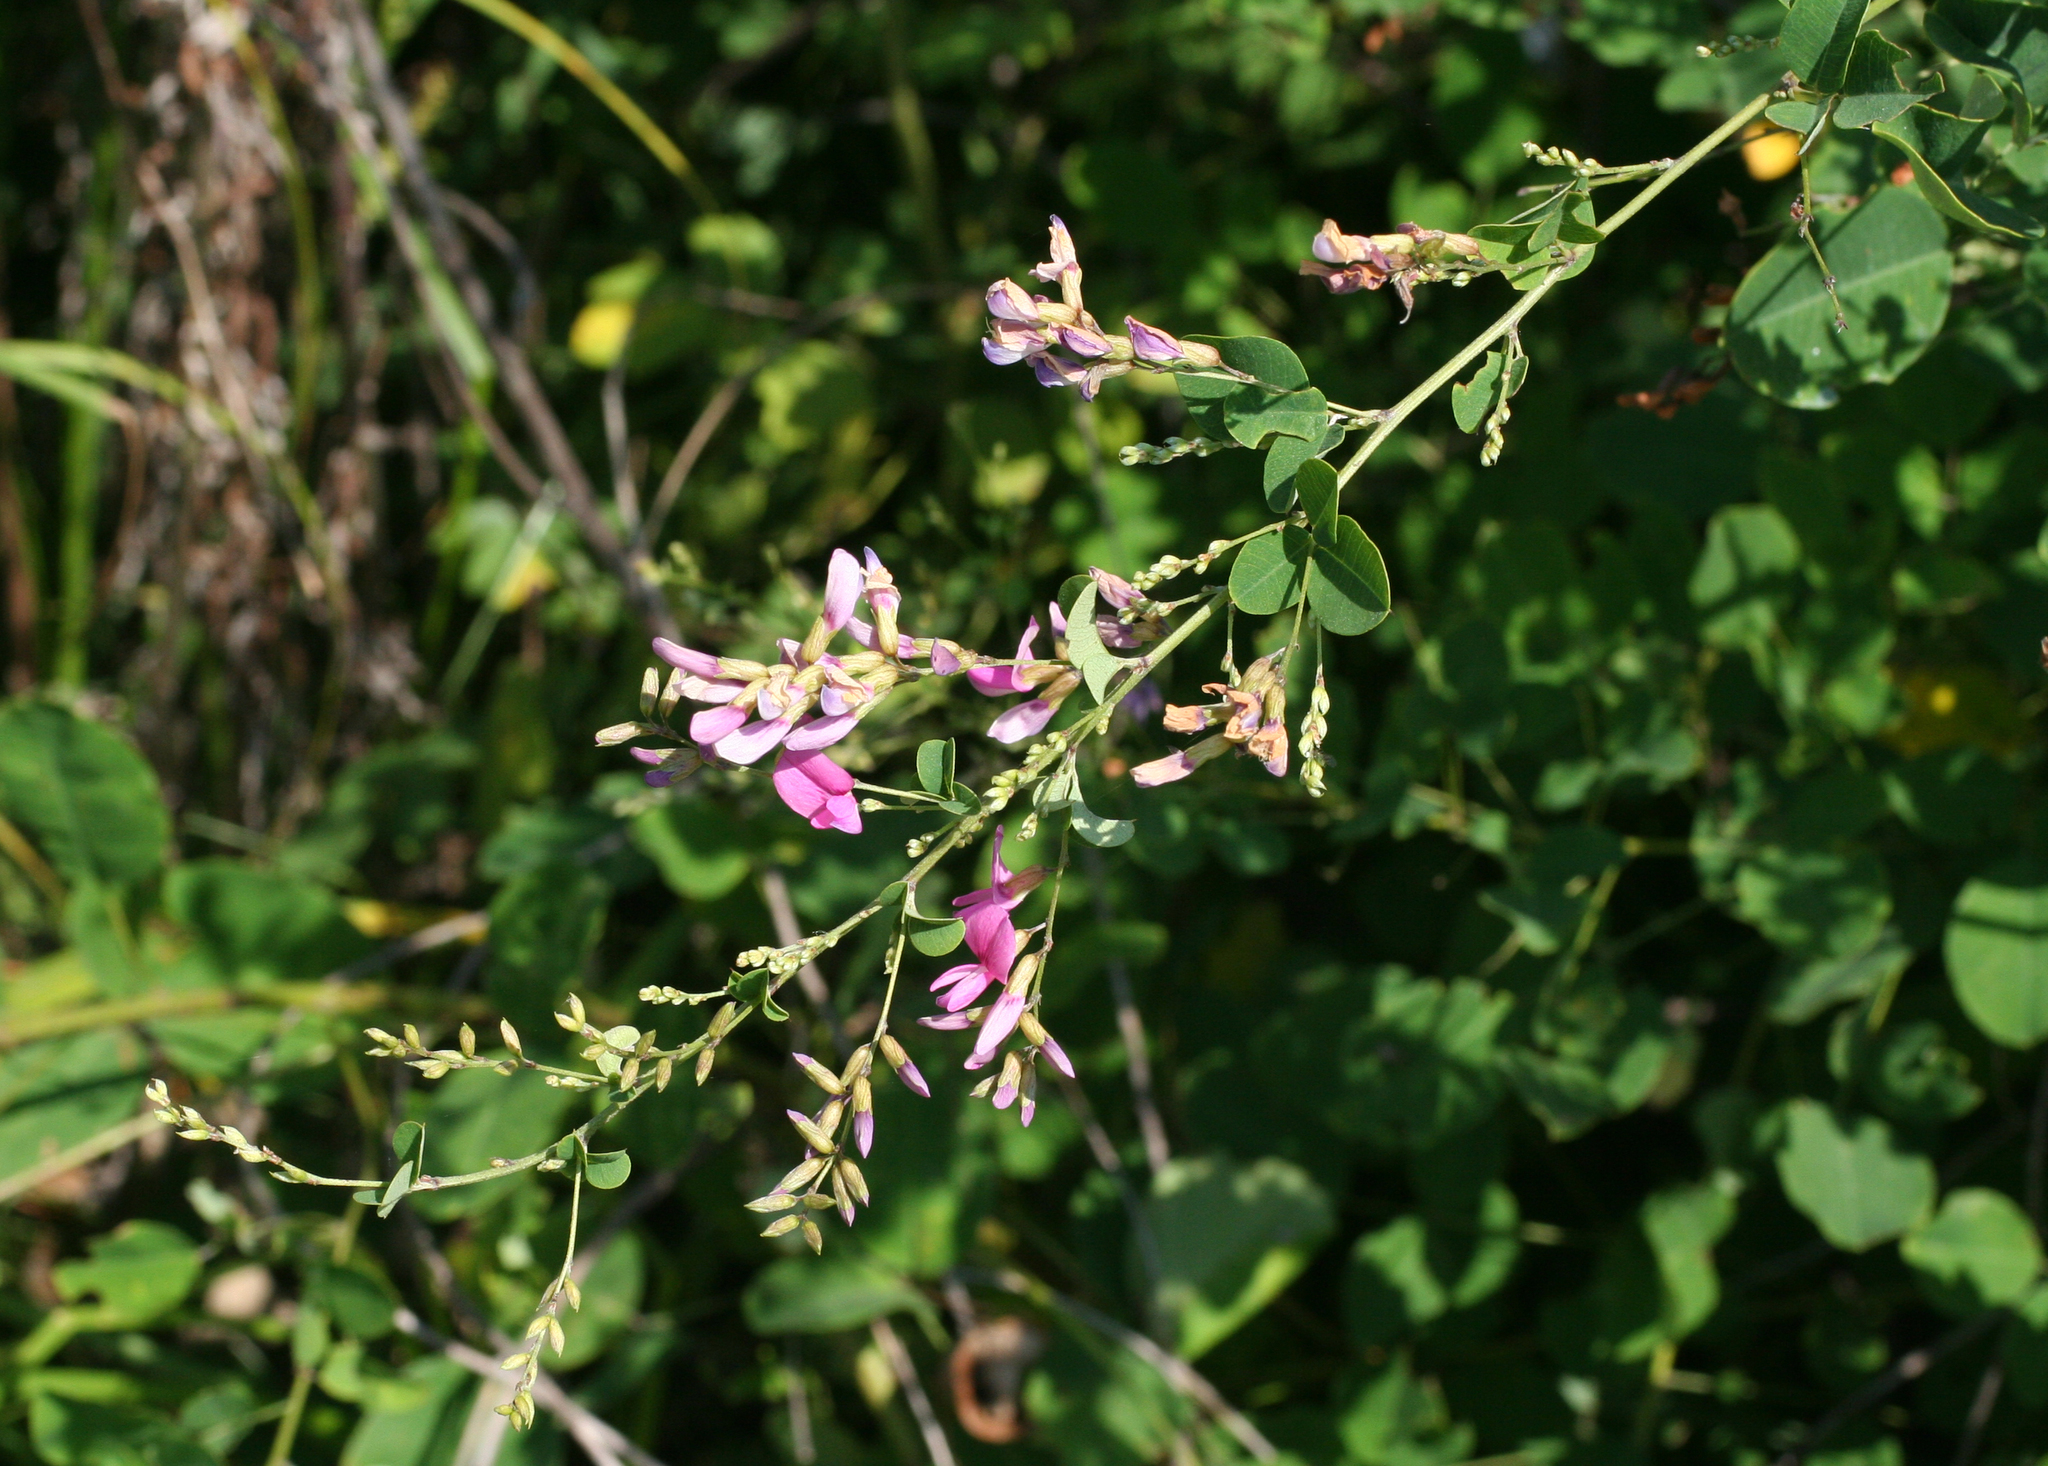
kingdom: Plantae
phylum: Tracheophyta
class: Magnoliopsida
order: Fabales
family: Fabaceae
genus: Lespedeza
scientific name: Lespedeza bicolor
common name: Shrub lespedeza
